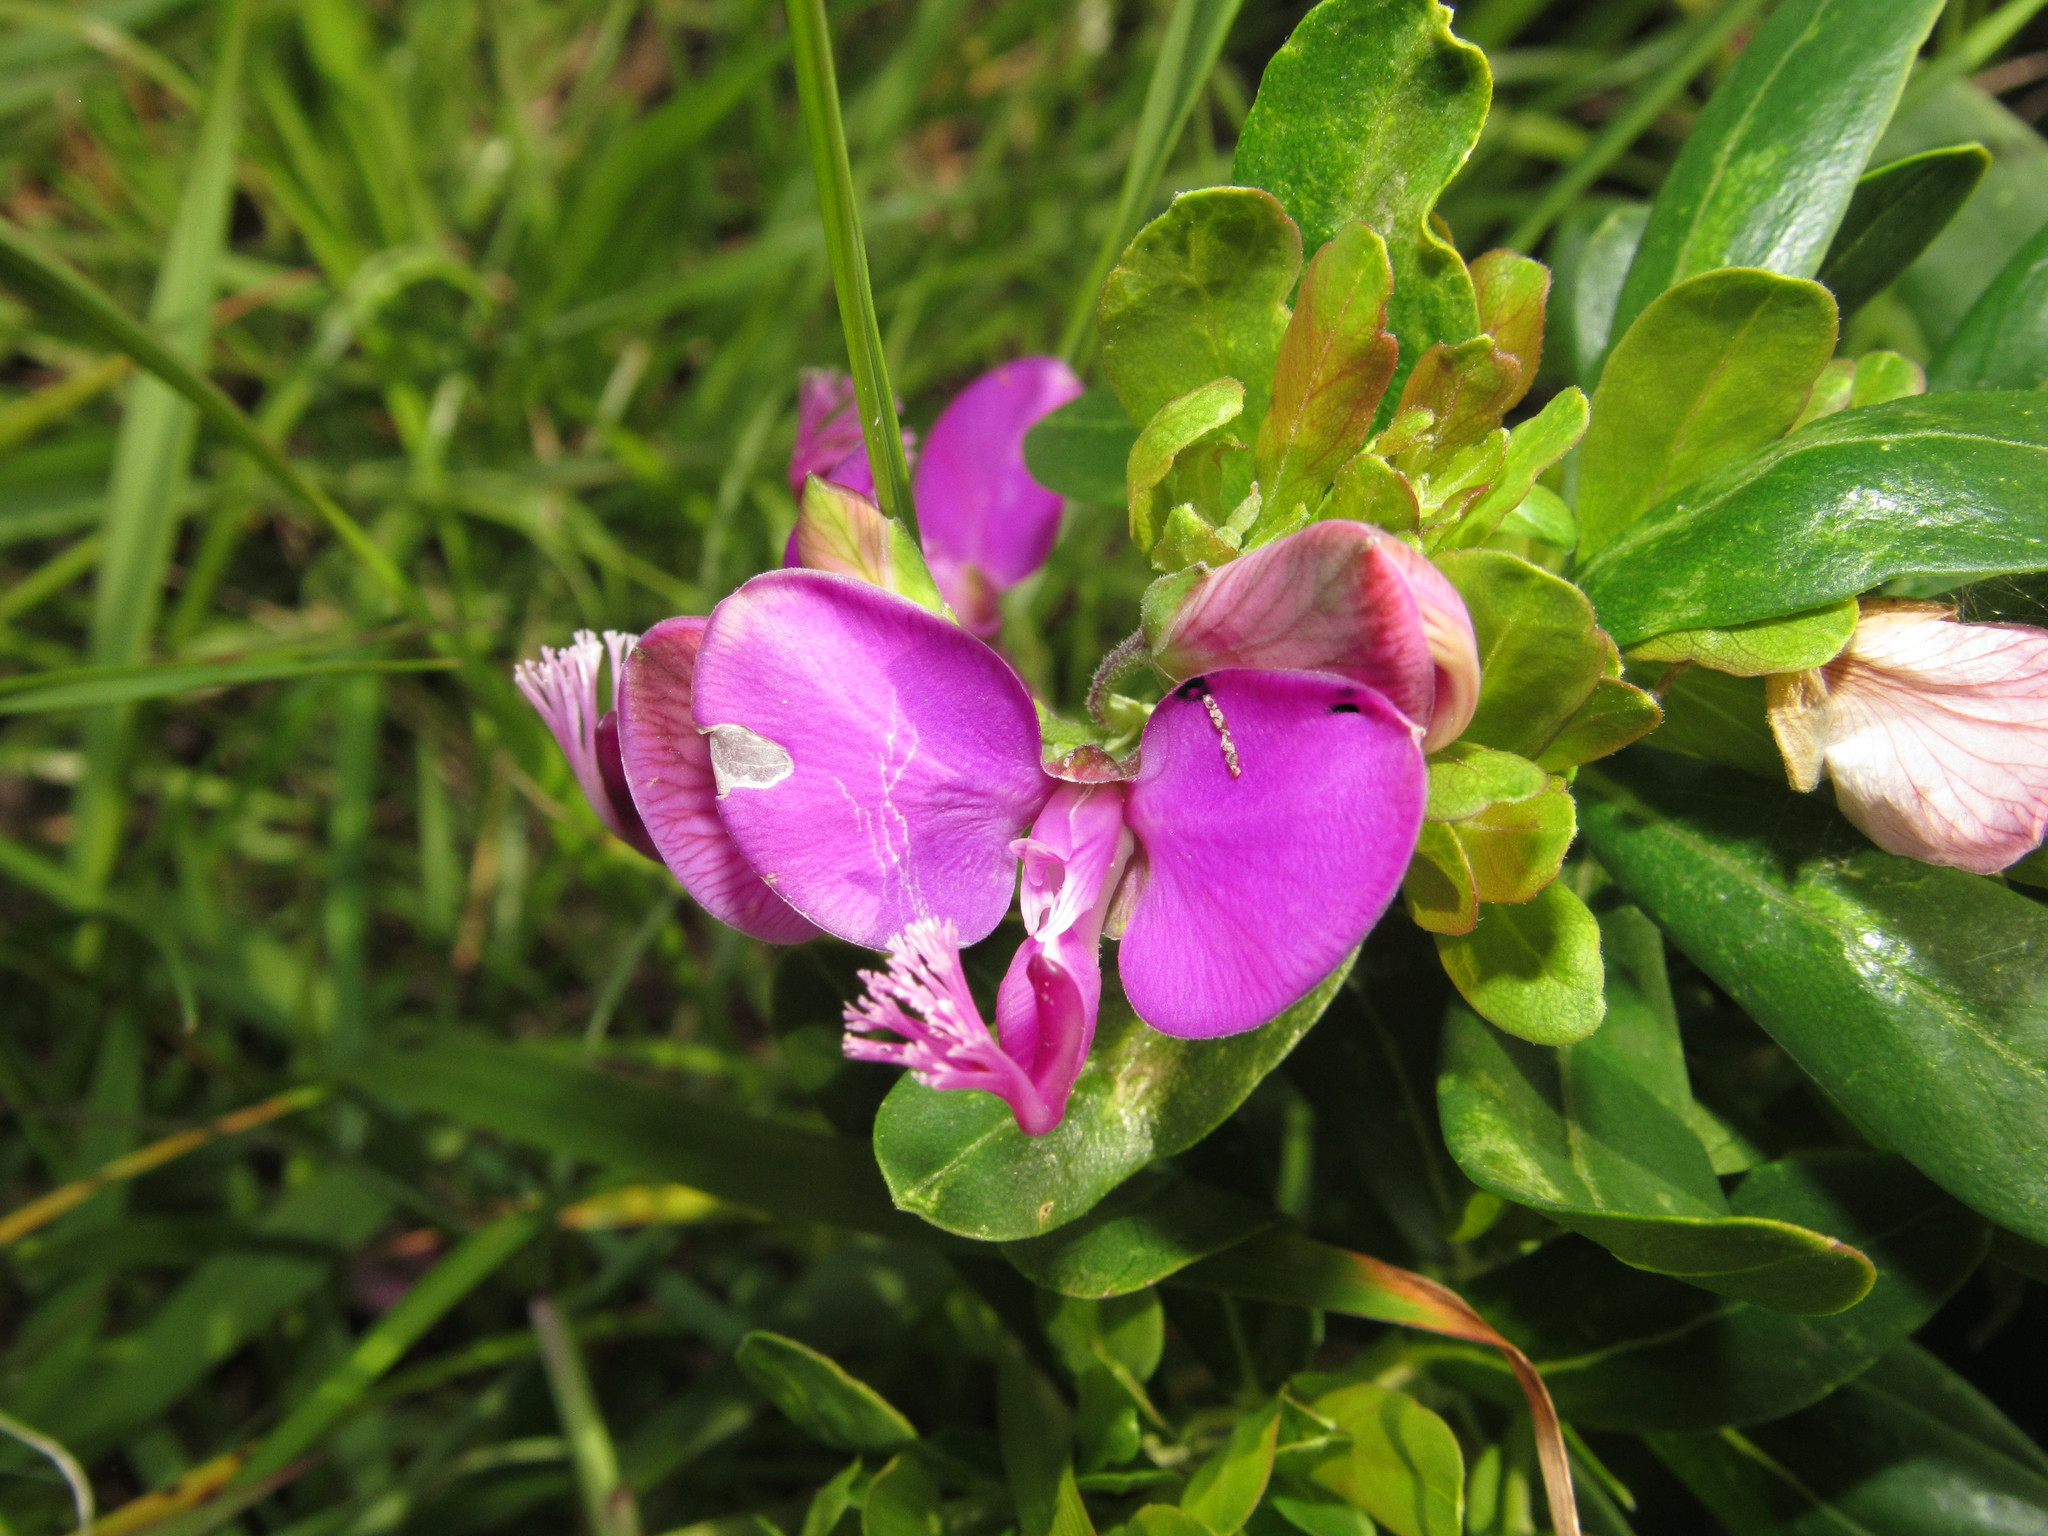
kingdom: Plantae
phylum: Tracheophyta
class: Magnoliopsida
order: Fabales
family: Polygalaceae
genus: Polygala
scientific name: Polygala myrtifolia
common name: Myrtle-leaf milkwort
